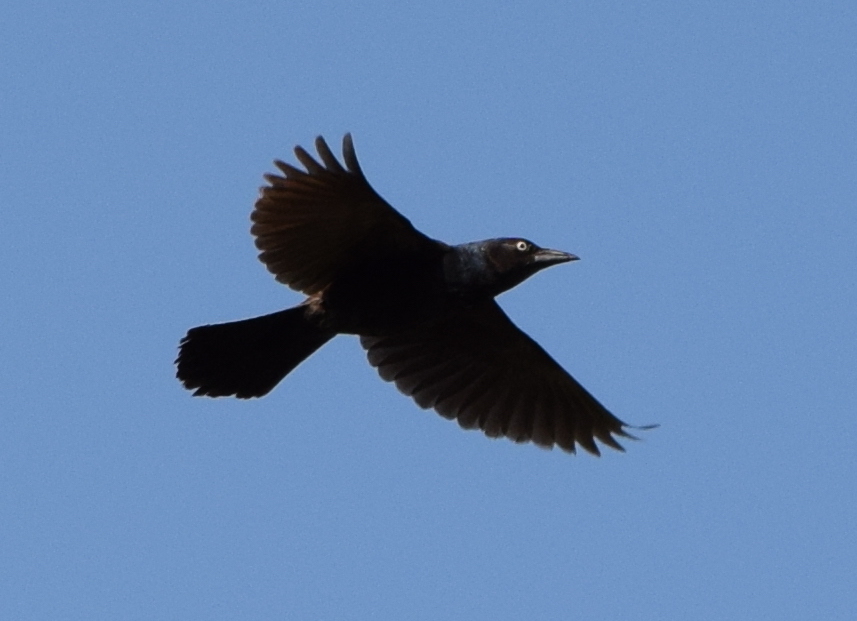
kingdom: Animalia
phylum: Chordata
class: Aves
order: Passeriformes
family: Icteridae
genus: Quiscalus
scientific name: Quiscalus quiscula
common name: Common grackle
